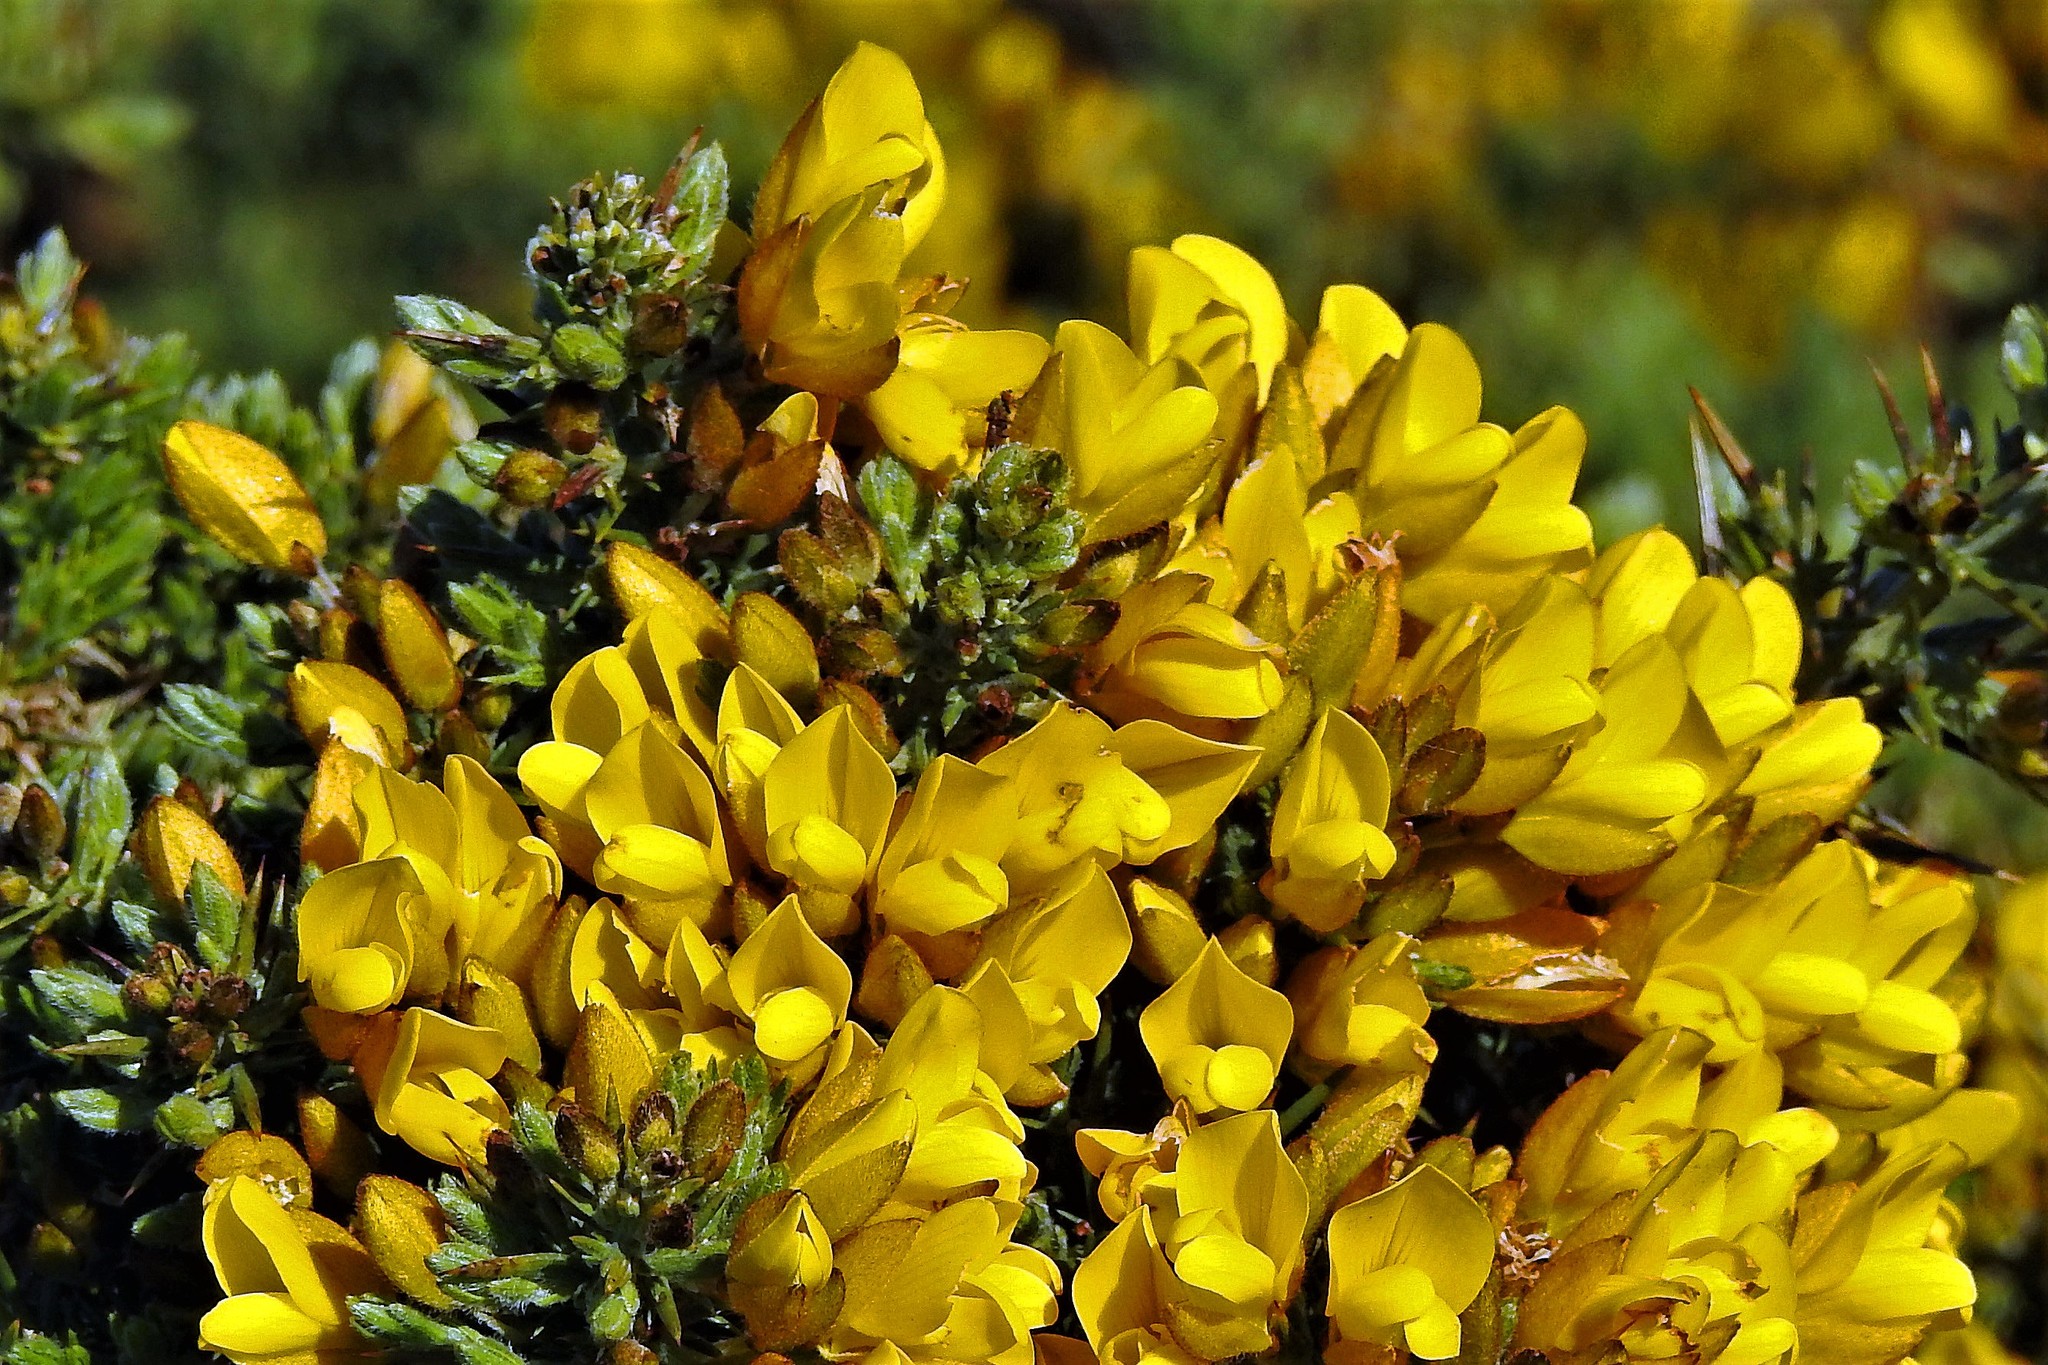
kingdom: Plantae
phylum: Tracheophyta
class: Magnoliopsida
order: Fabales
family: Fabaceae
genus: Ulex
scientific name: Ulex europaeus
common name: Common gorse
